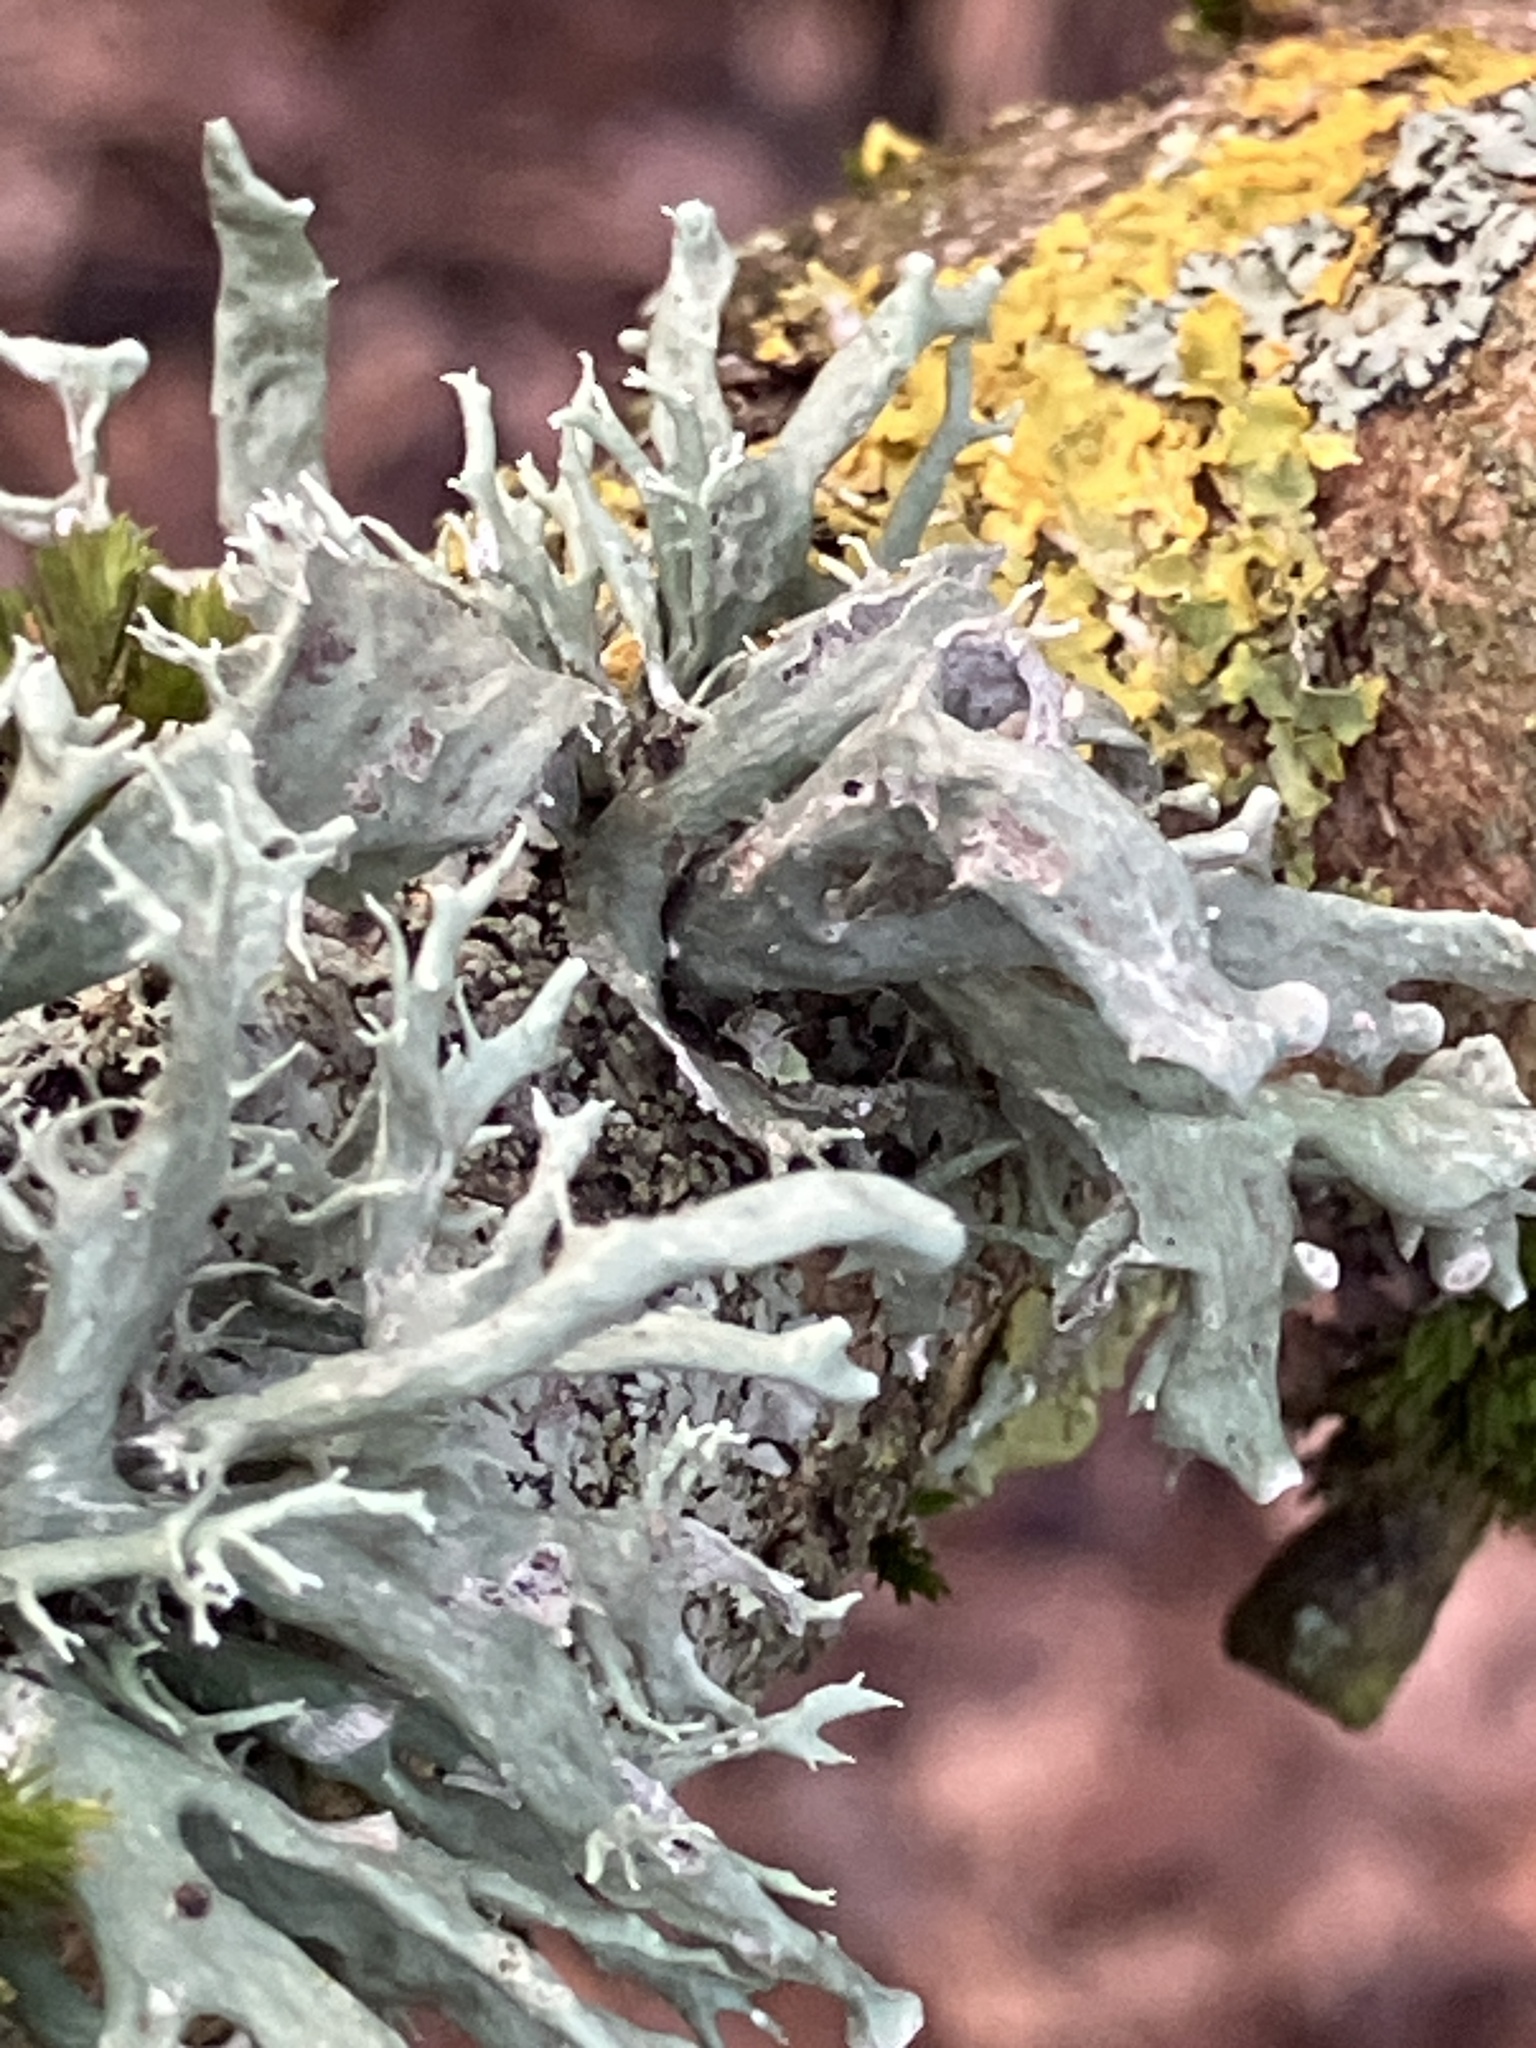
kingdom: Fungi
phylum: Ascomycota
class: Lecanoromycetes
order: Lecanorales
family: Ramalinaceae
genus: Ramalina
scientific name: Ramalina fastigiata
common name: Dotted ribbon lichen
